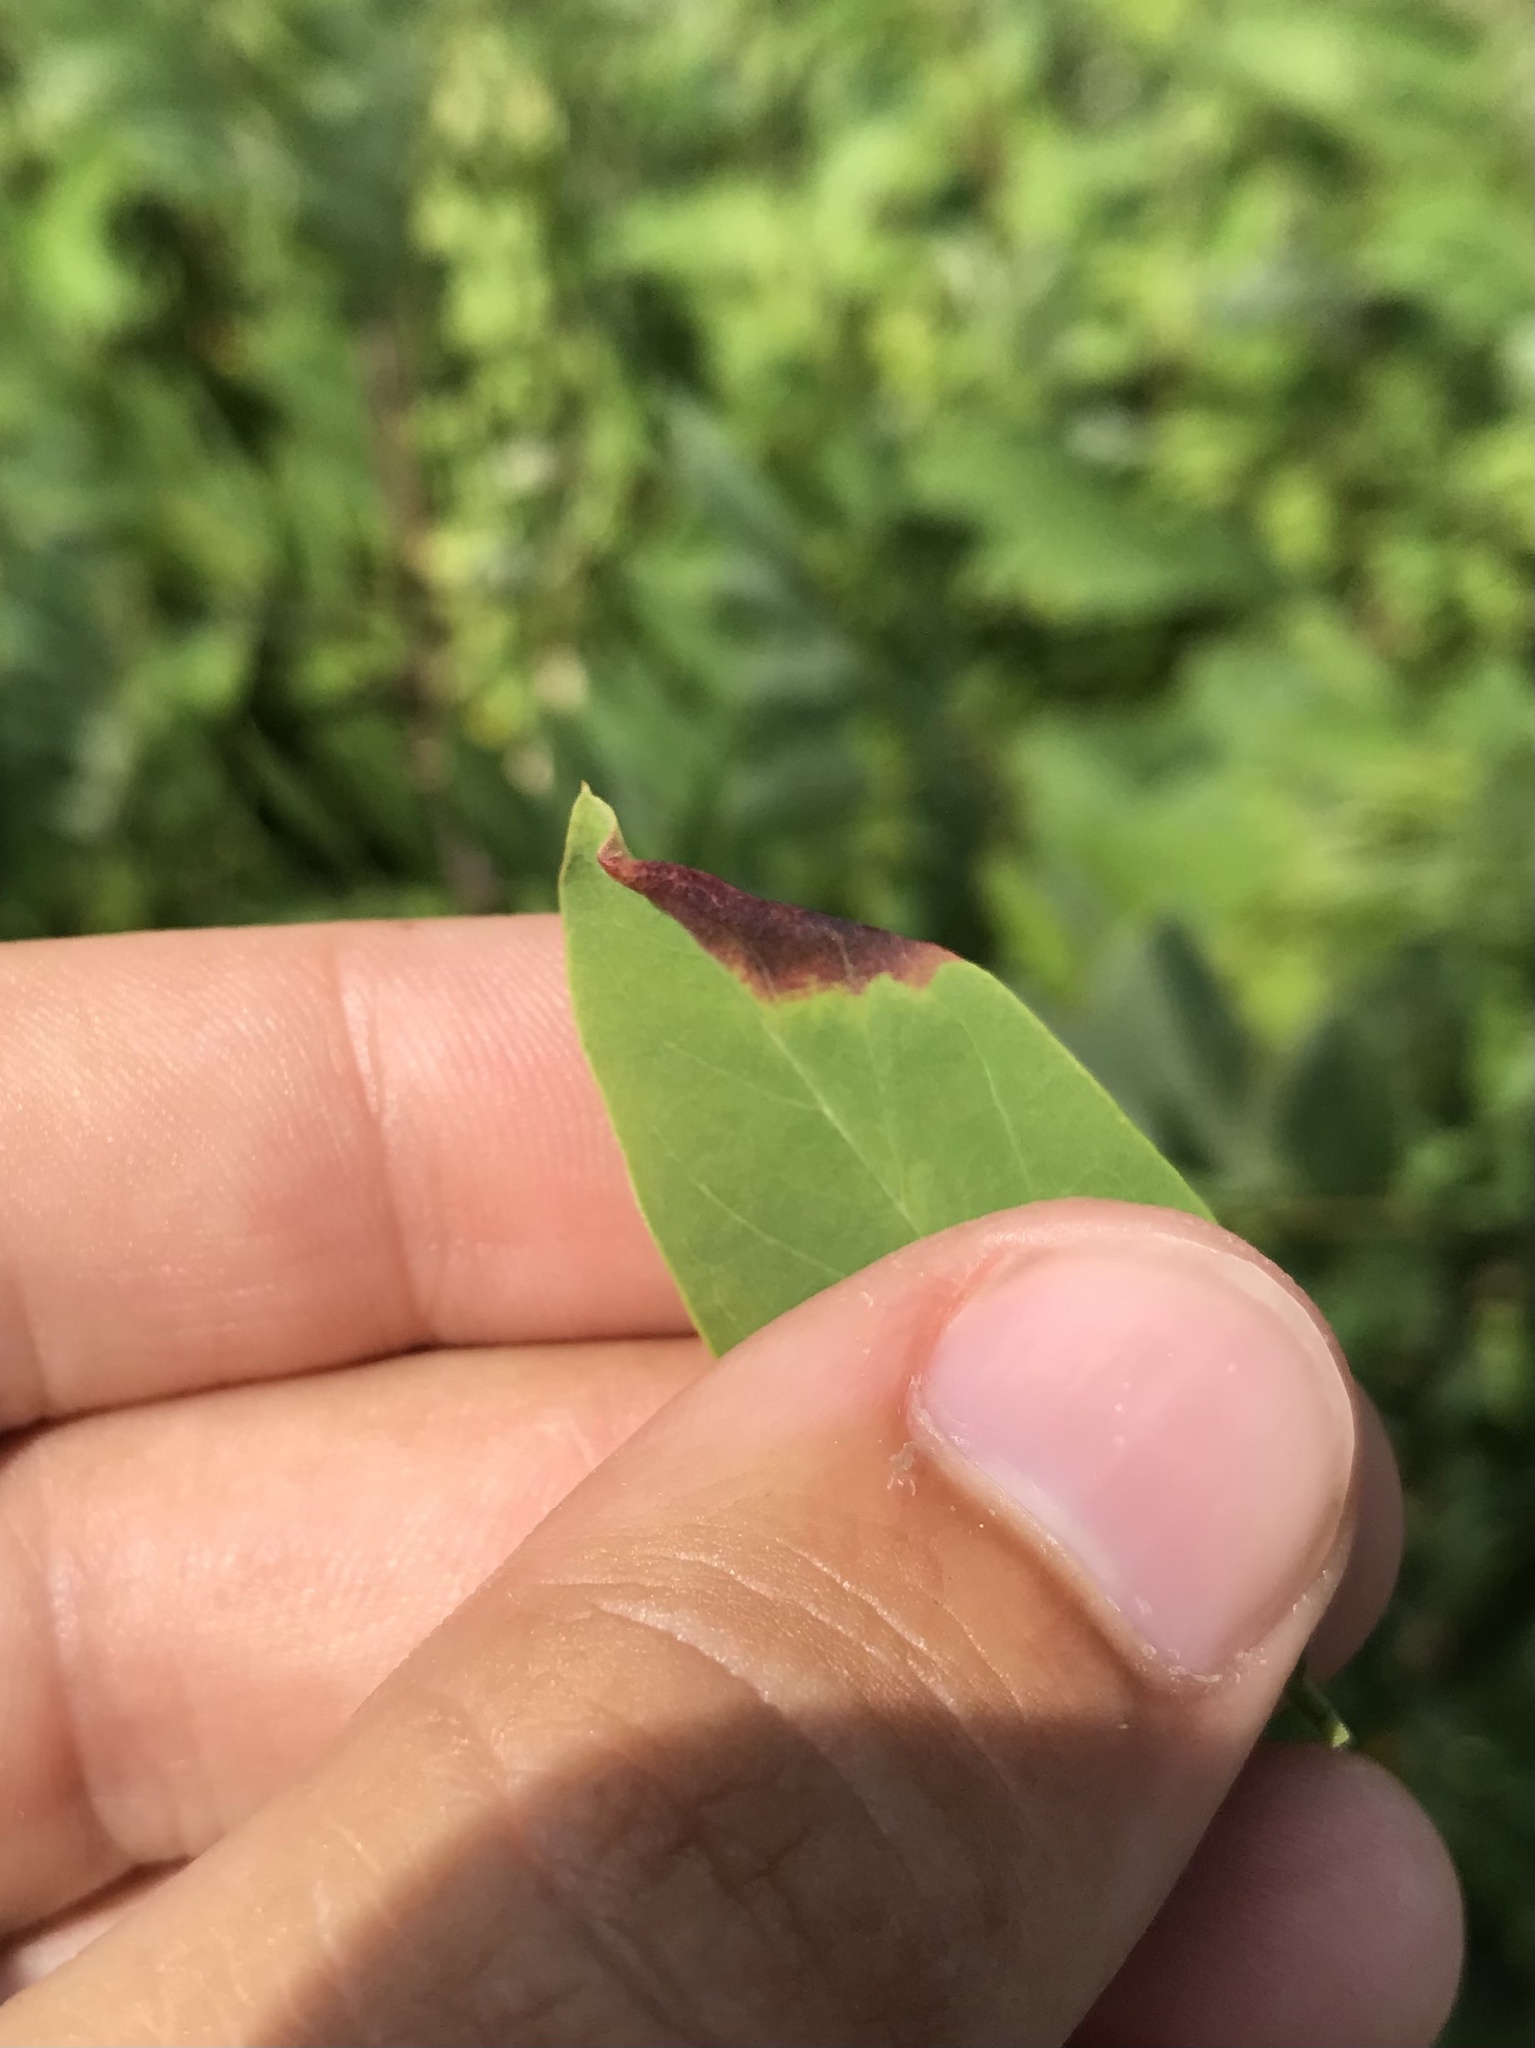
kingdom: Animalia
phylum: Arthropoda
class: Insecta
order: Diptera
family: Cecidomyiidae
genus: Obolodiplosis
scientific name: Obolodiplosis robiniae
